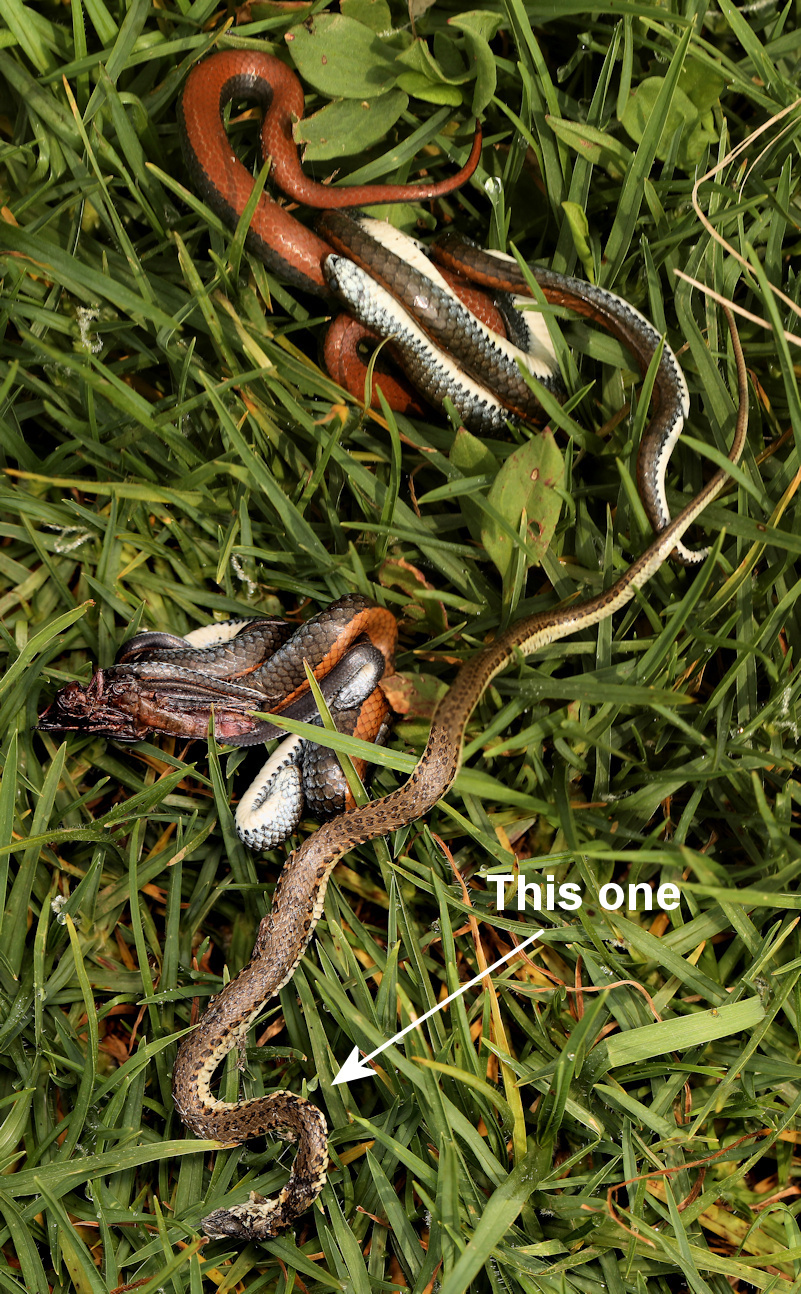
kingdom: Animalia
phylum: Chordata
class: Squamata
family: Pseudaspididae
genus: Pseudaspis
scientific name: Pseudaspis cana
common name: Mole snake
